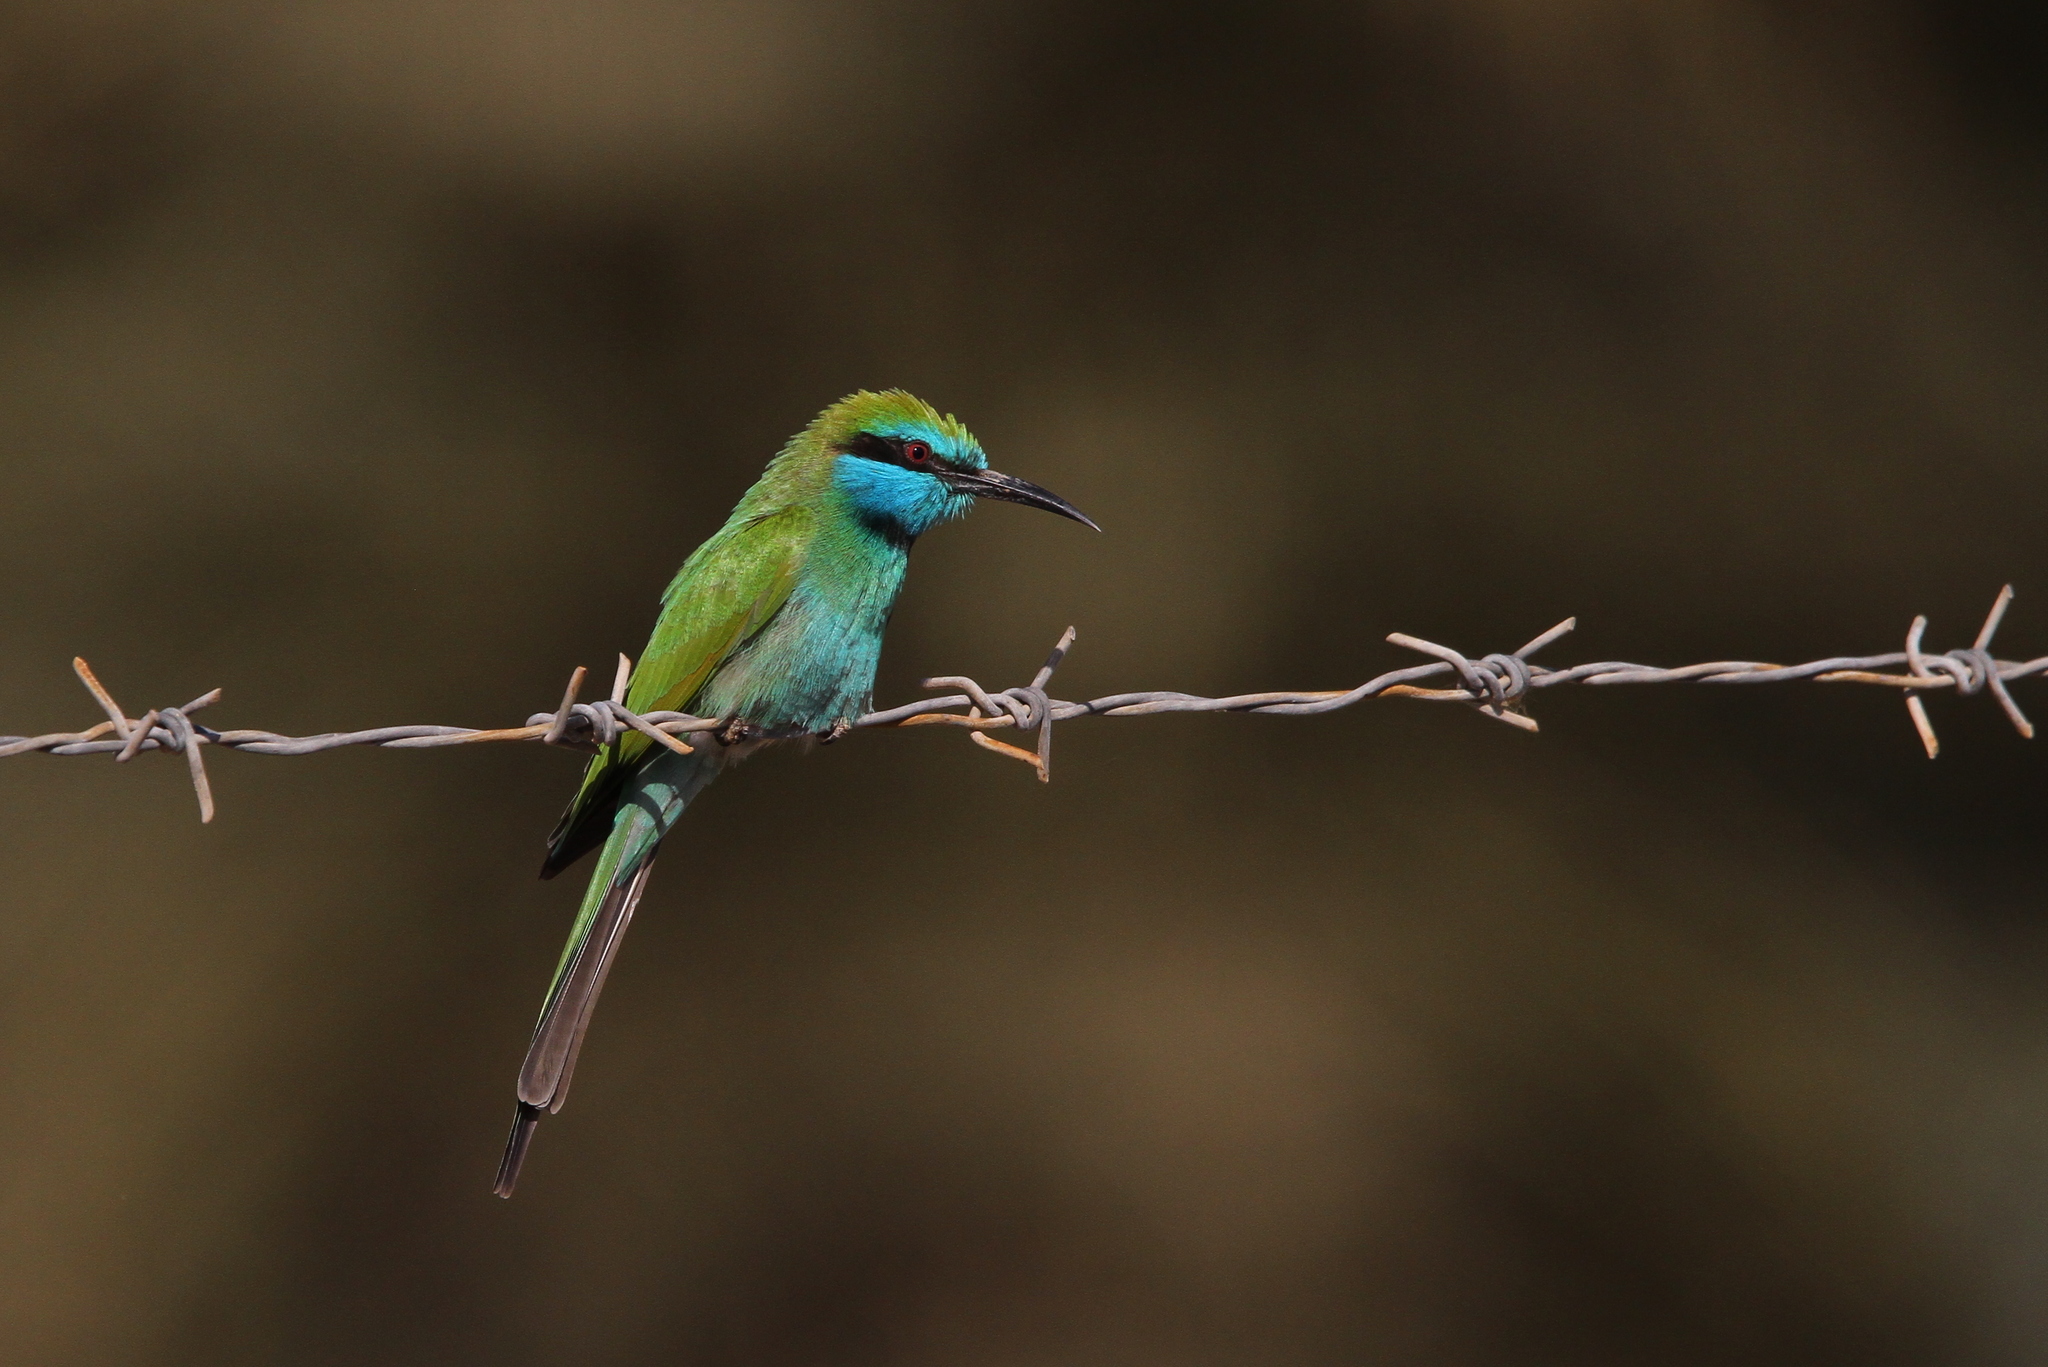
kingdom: Animalia
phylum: Chordata
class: Aves
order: Coraciiformes
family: Meropidae
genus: Merops
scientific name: Merops cyanophrys
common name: Arabian green bee-eater
